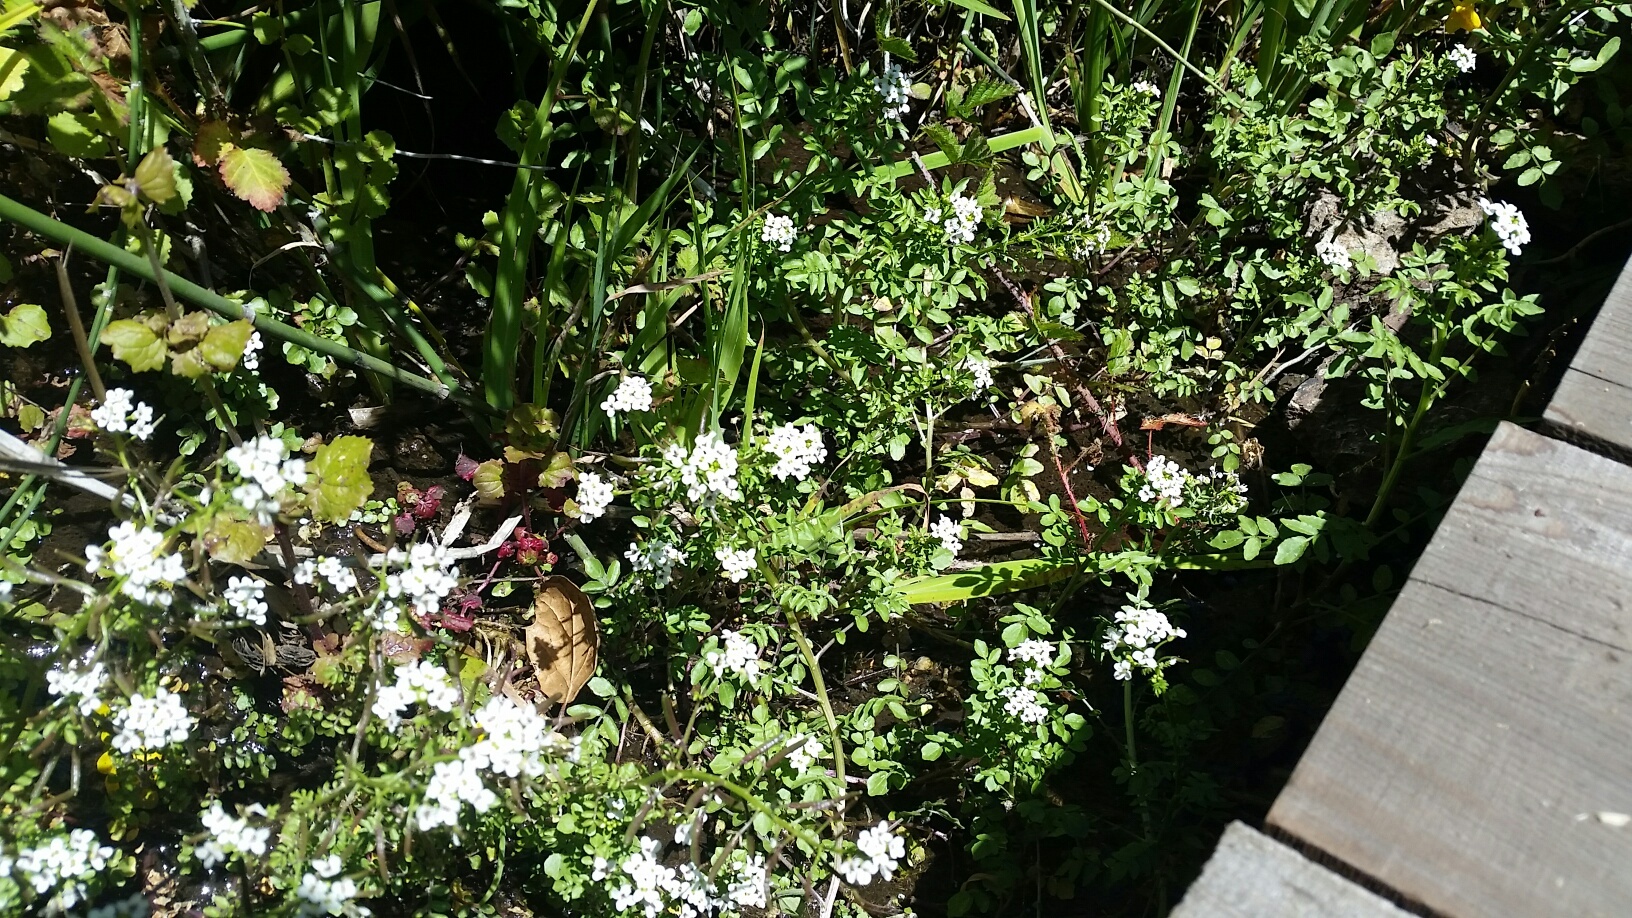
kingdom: Plantae
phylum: Tracheophyta
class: Magnoliopsida
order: Brassicales
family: Brassicaceae
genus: Nasturtium
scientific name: Nasturtium officinale
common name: Watercress
